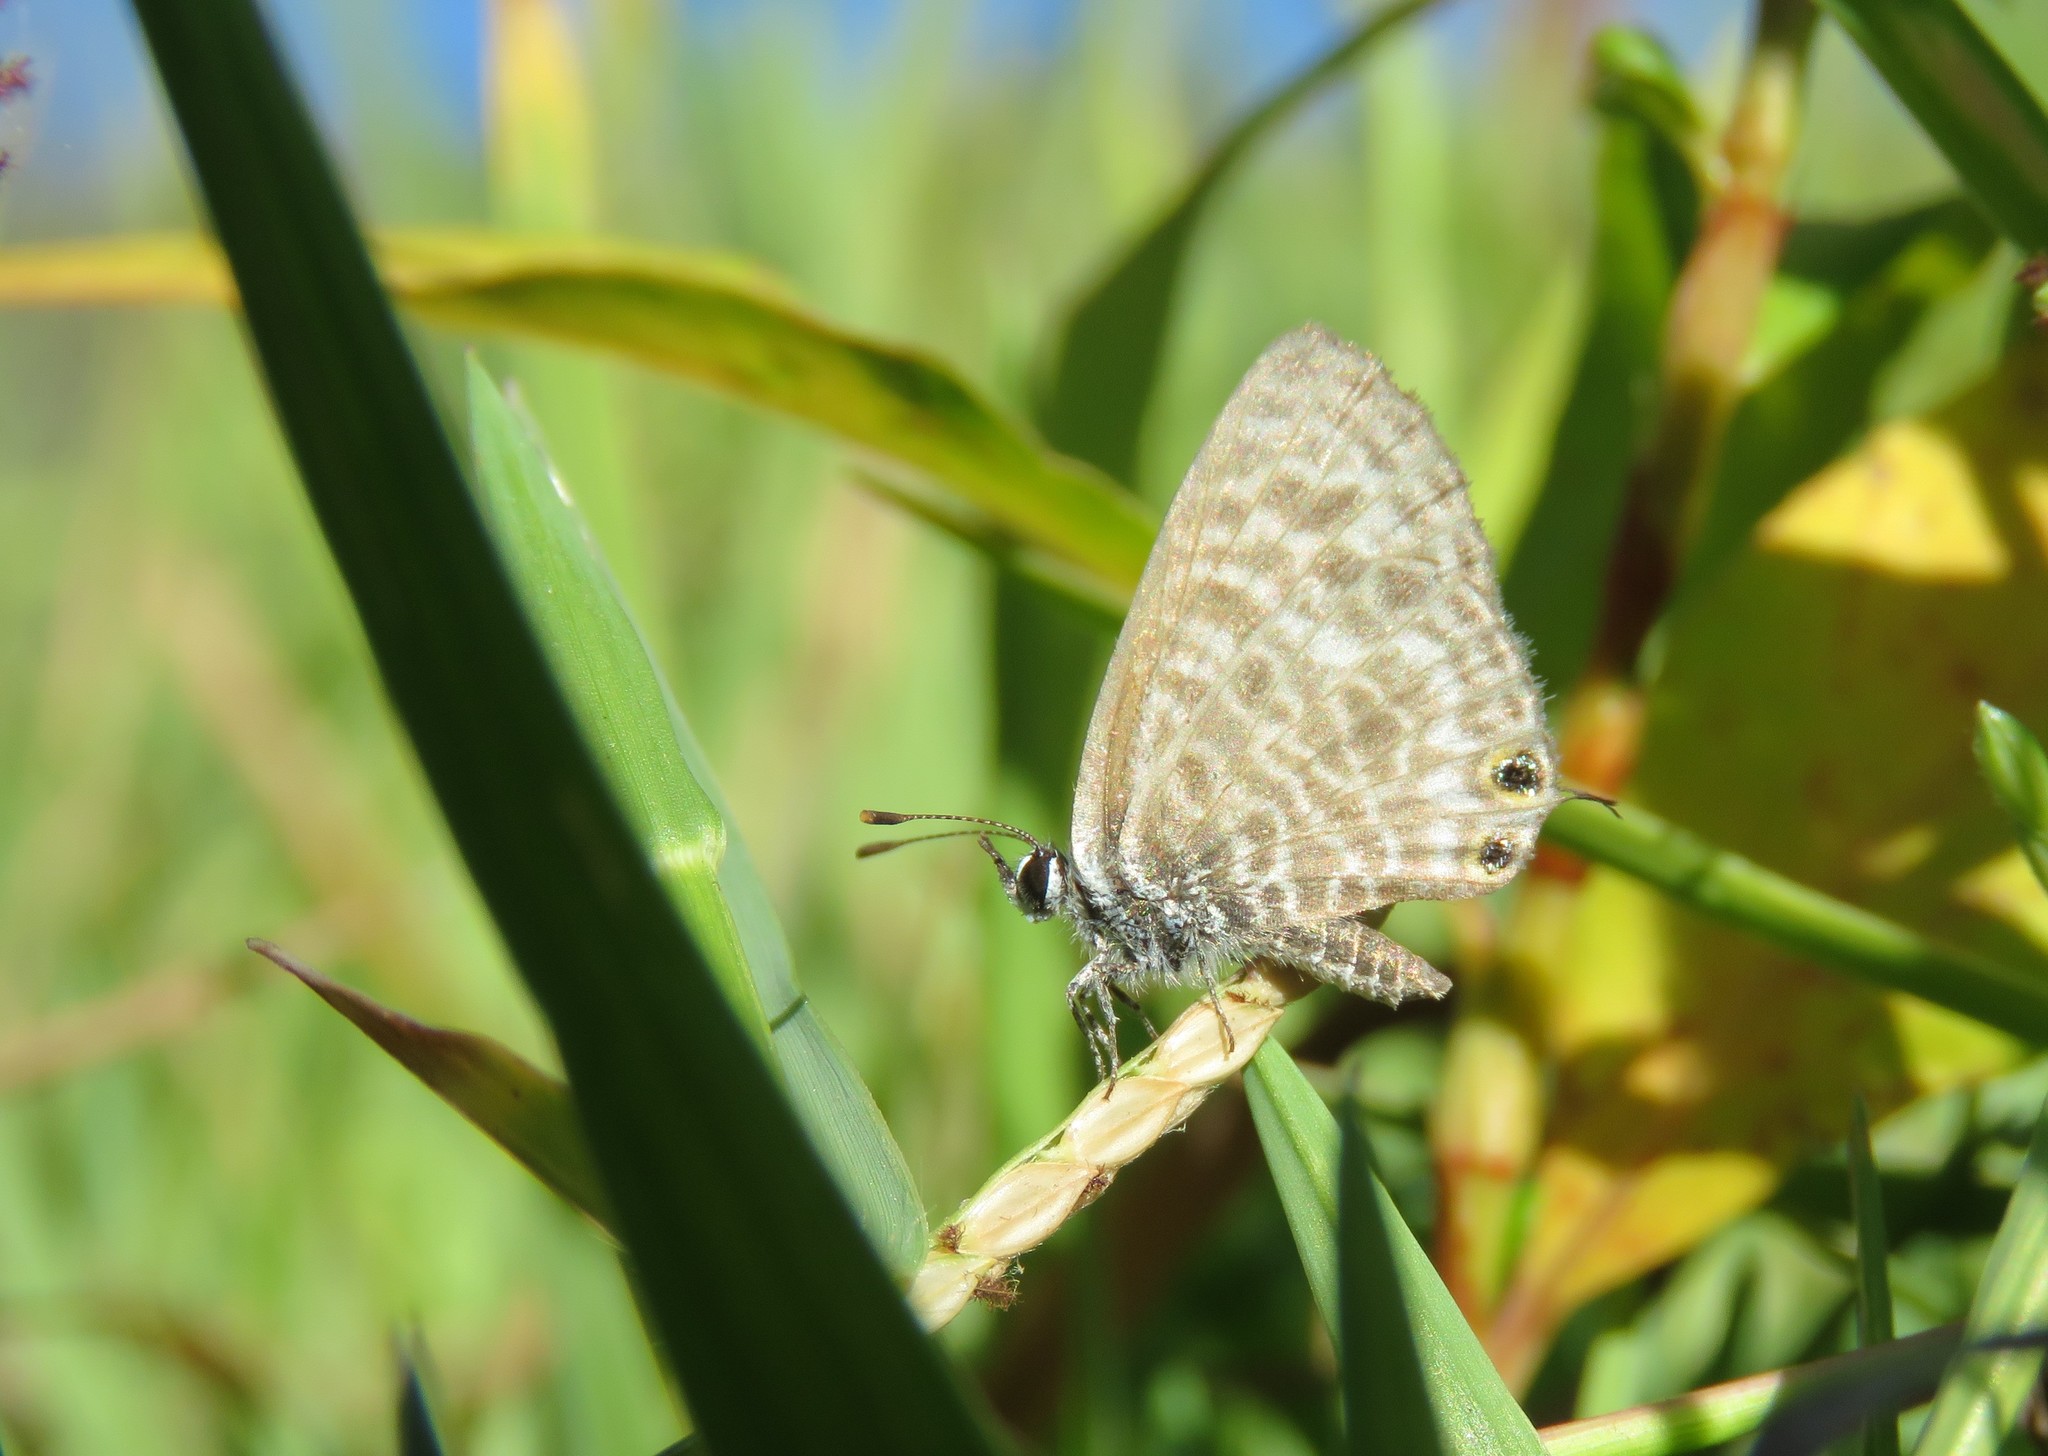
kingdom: Animalia
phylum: Arthropoda
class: Insecta
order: Lepidoptera
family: Lycaenidae
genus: Leptotes
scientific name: Leptotes pirithous
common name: Lang's short-tailed blue
